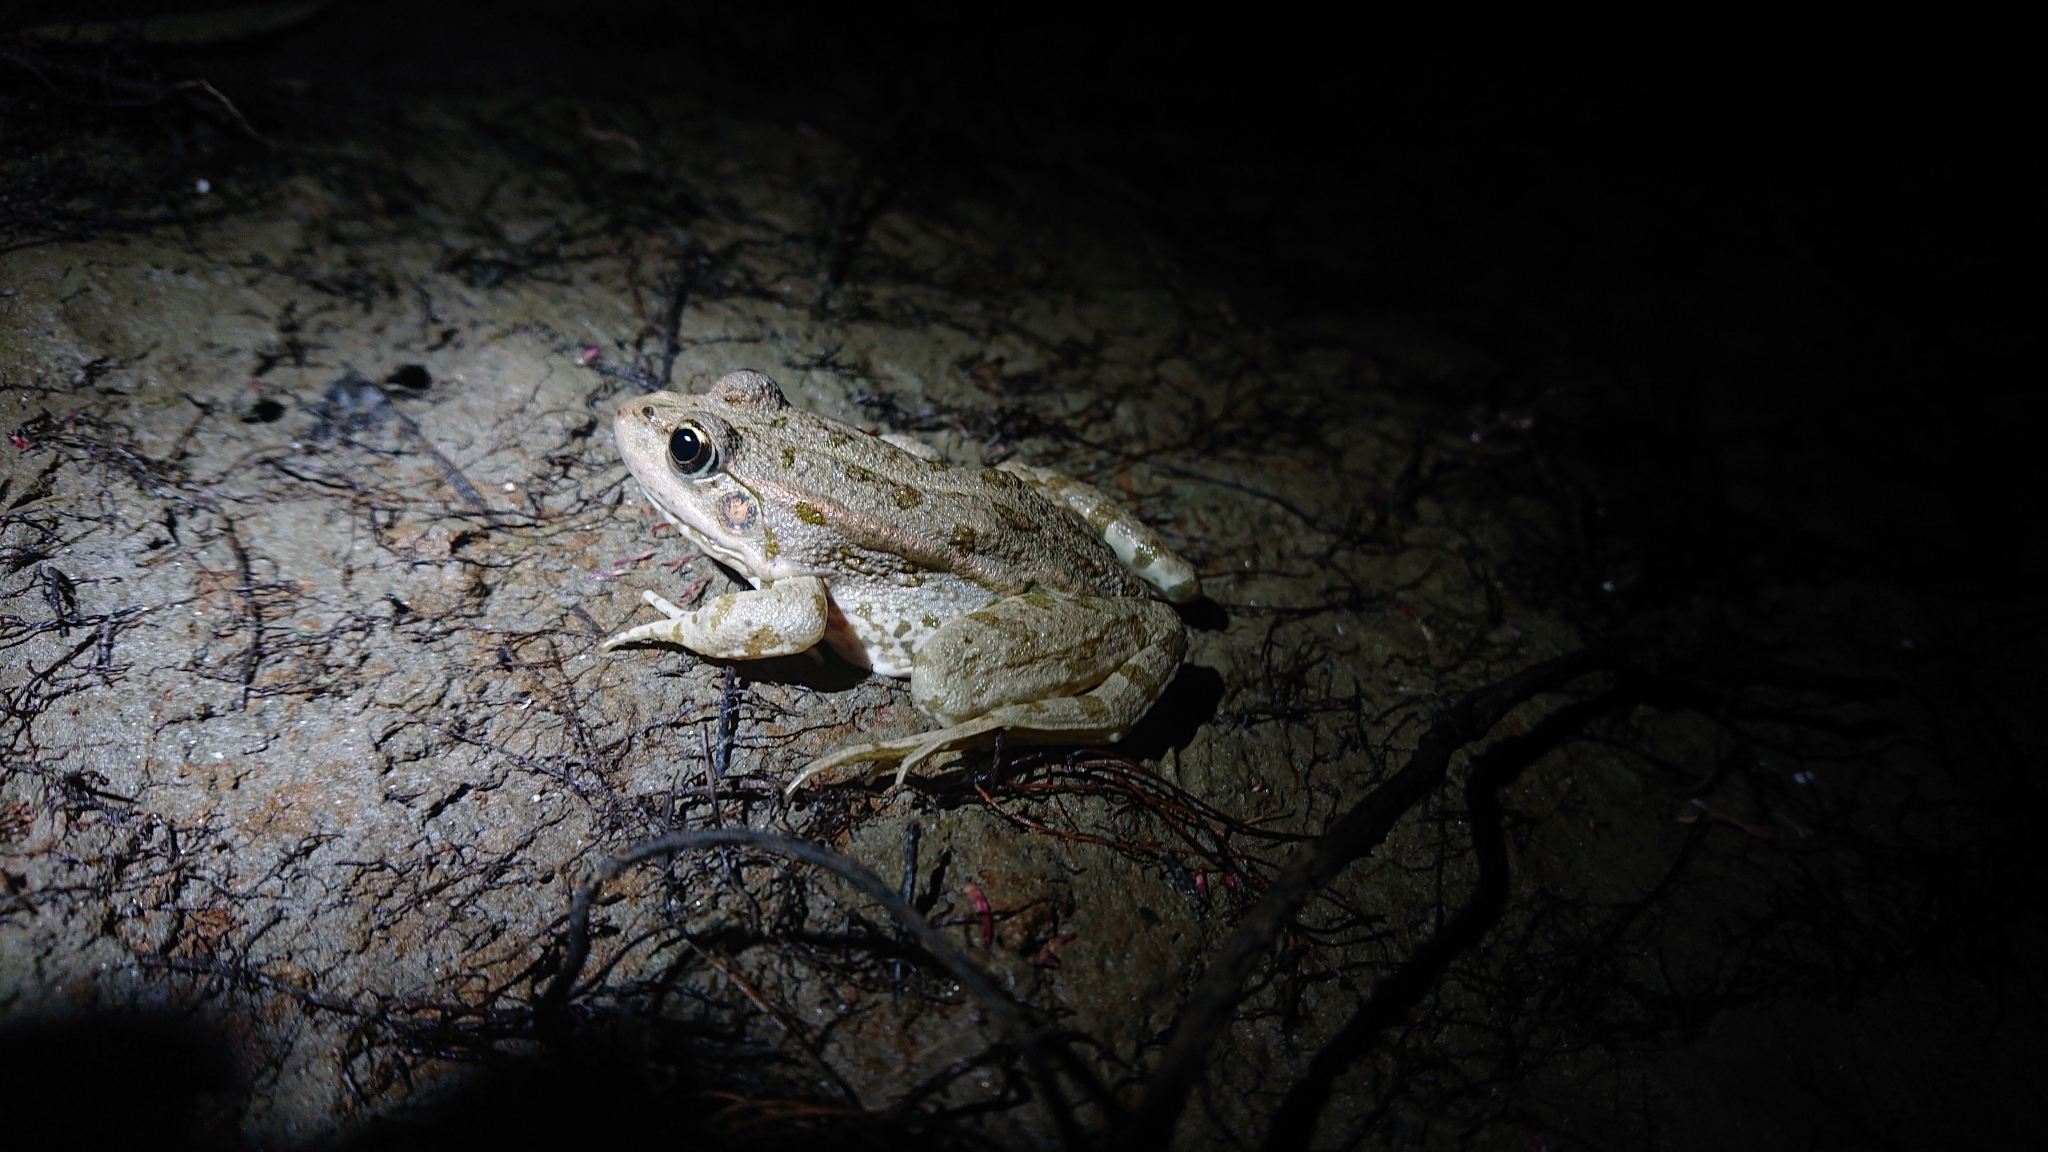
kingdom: Animalia
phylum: Chordata
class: Amphibia
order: Anura
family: Ranidae
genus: Pelophylax
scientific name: Pelophylax ridibundus
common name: Marsh frog
